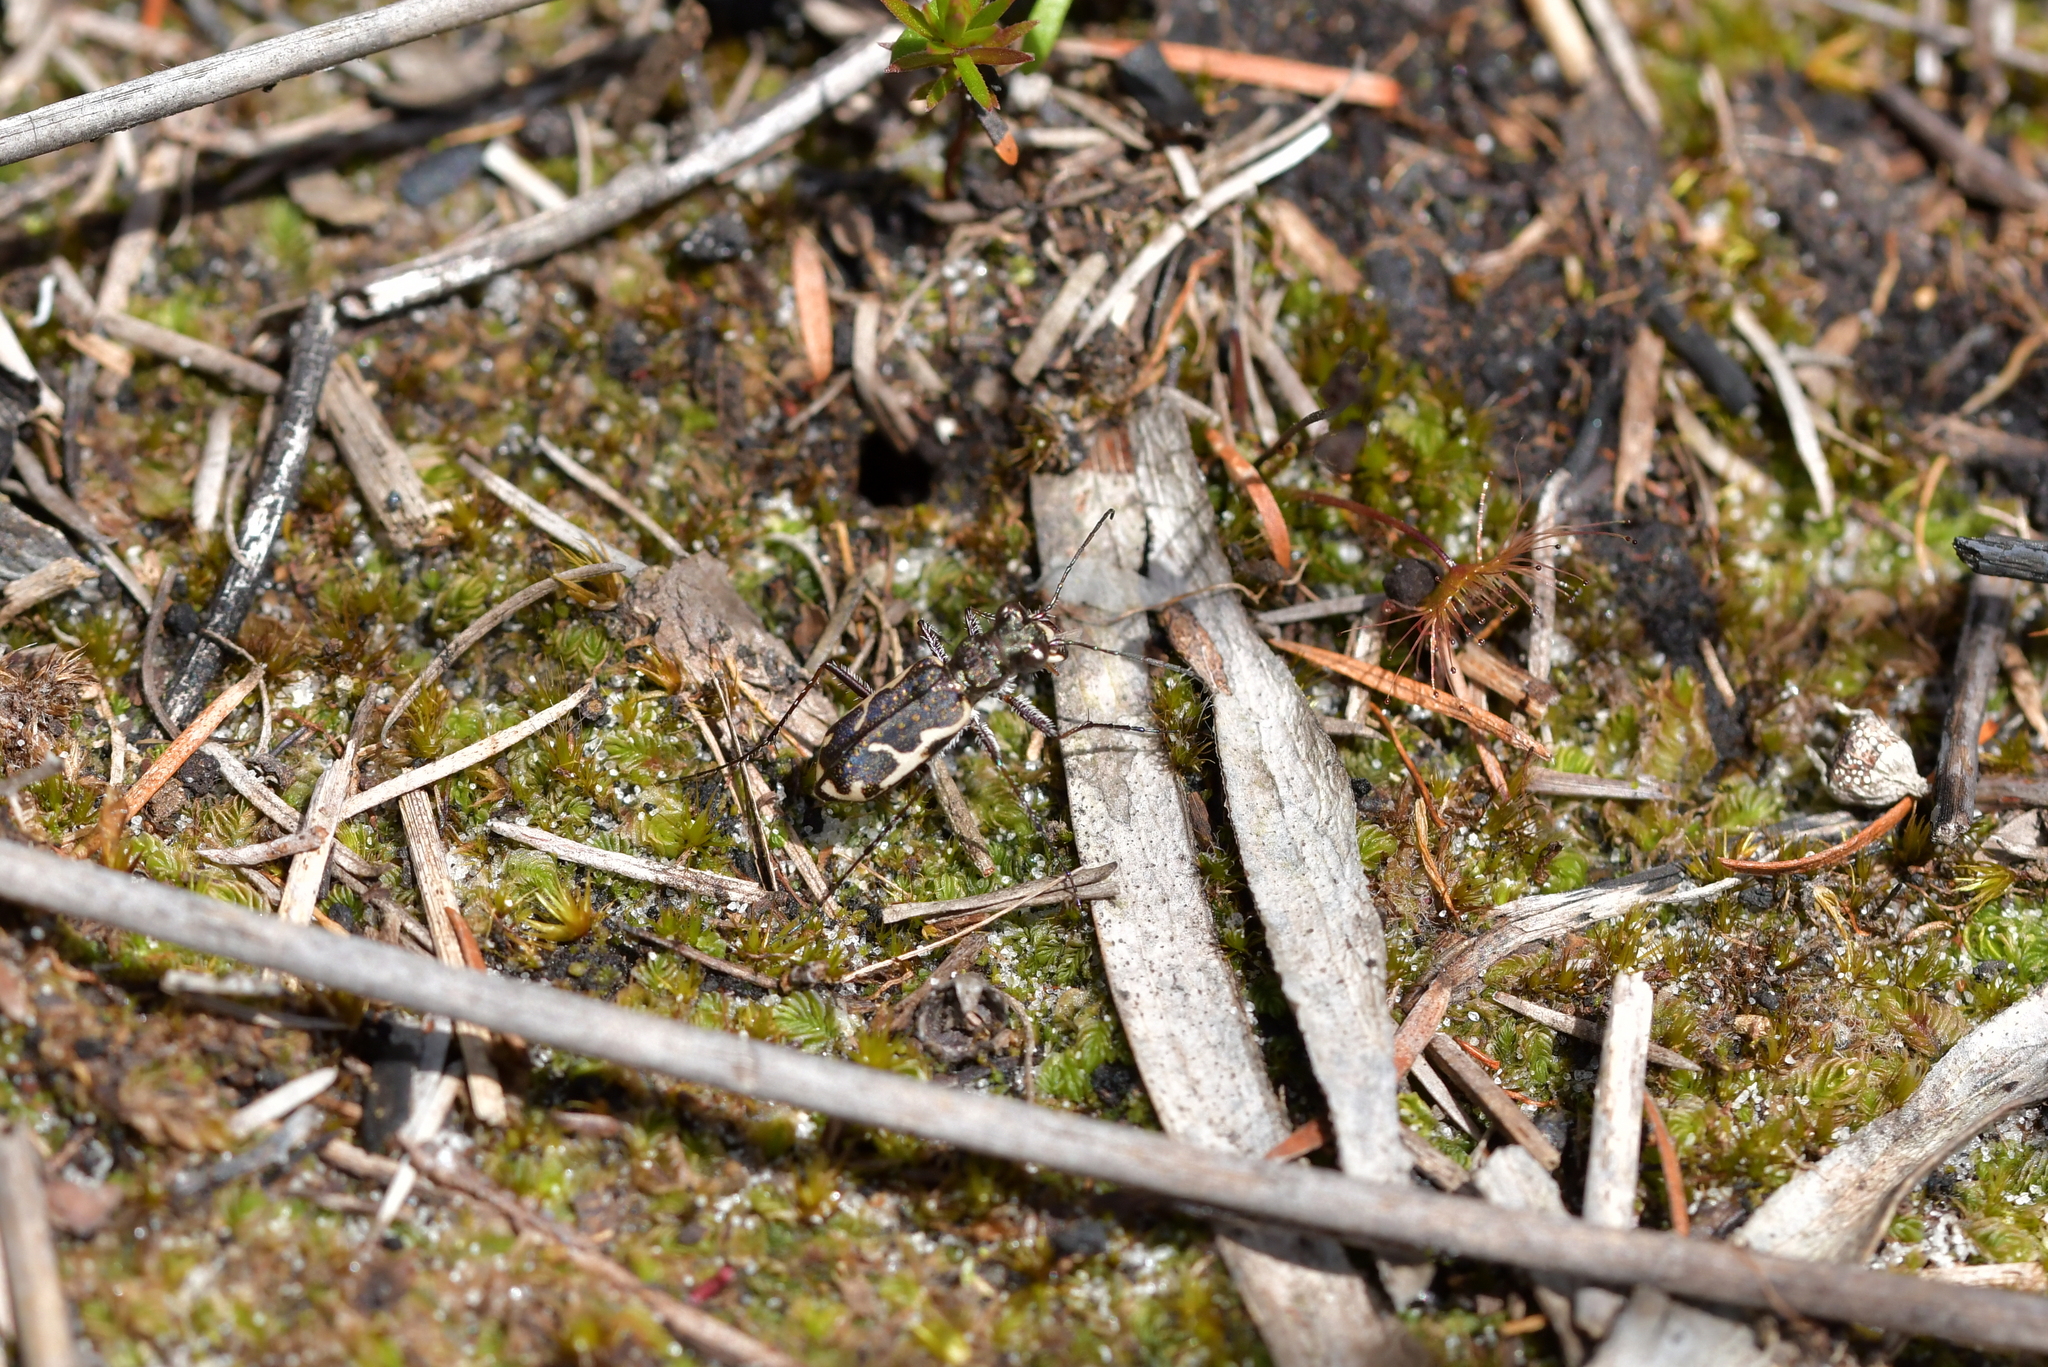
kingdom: Animalia
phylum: Arthropoda
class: Insecta
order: Coleoptera
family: Carabidae
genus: Neocicindela
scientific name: Neocicindela tuberculata
